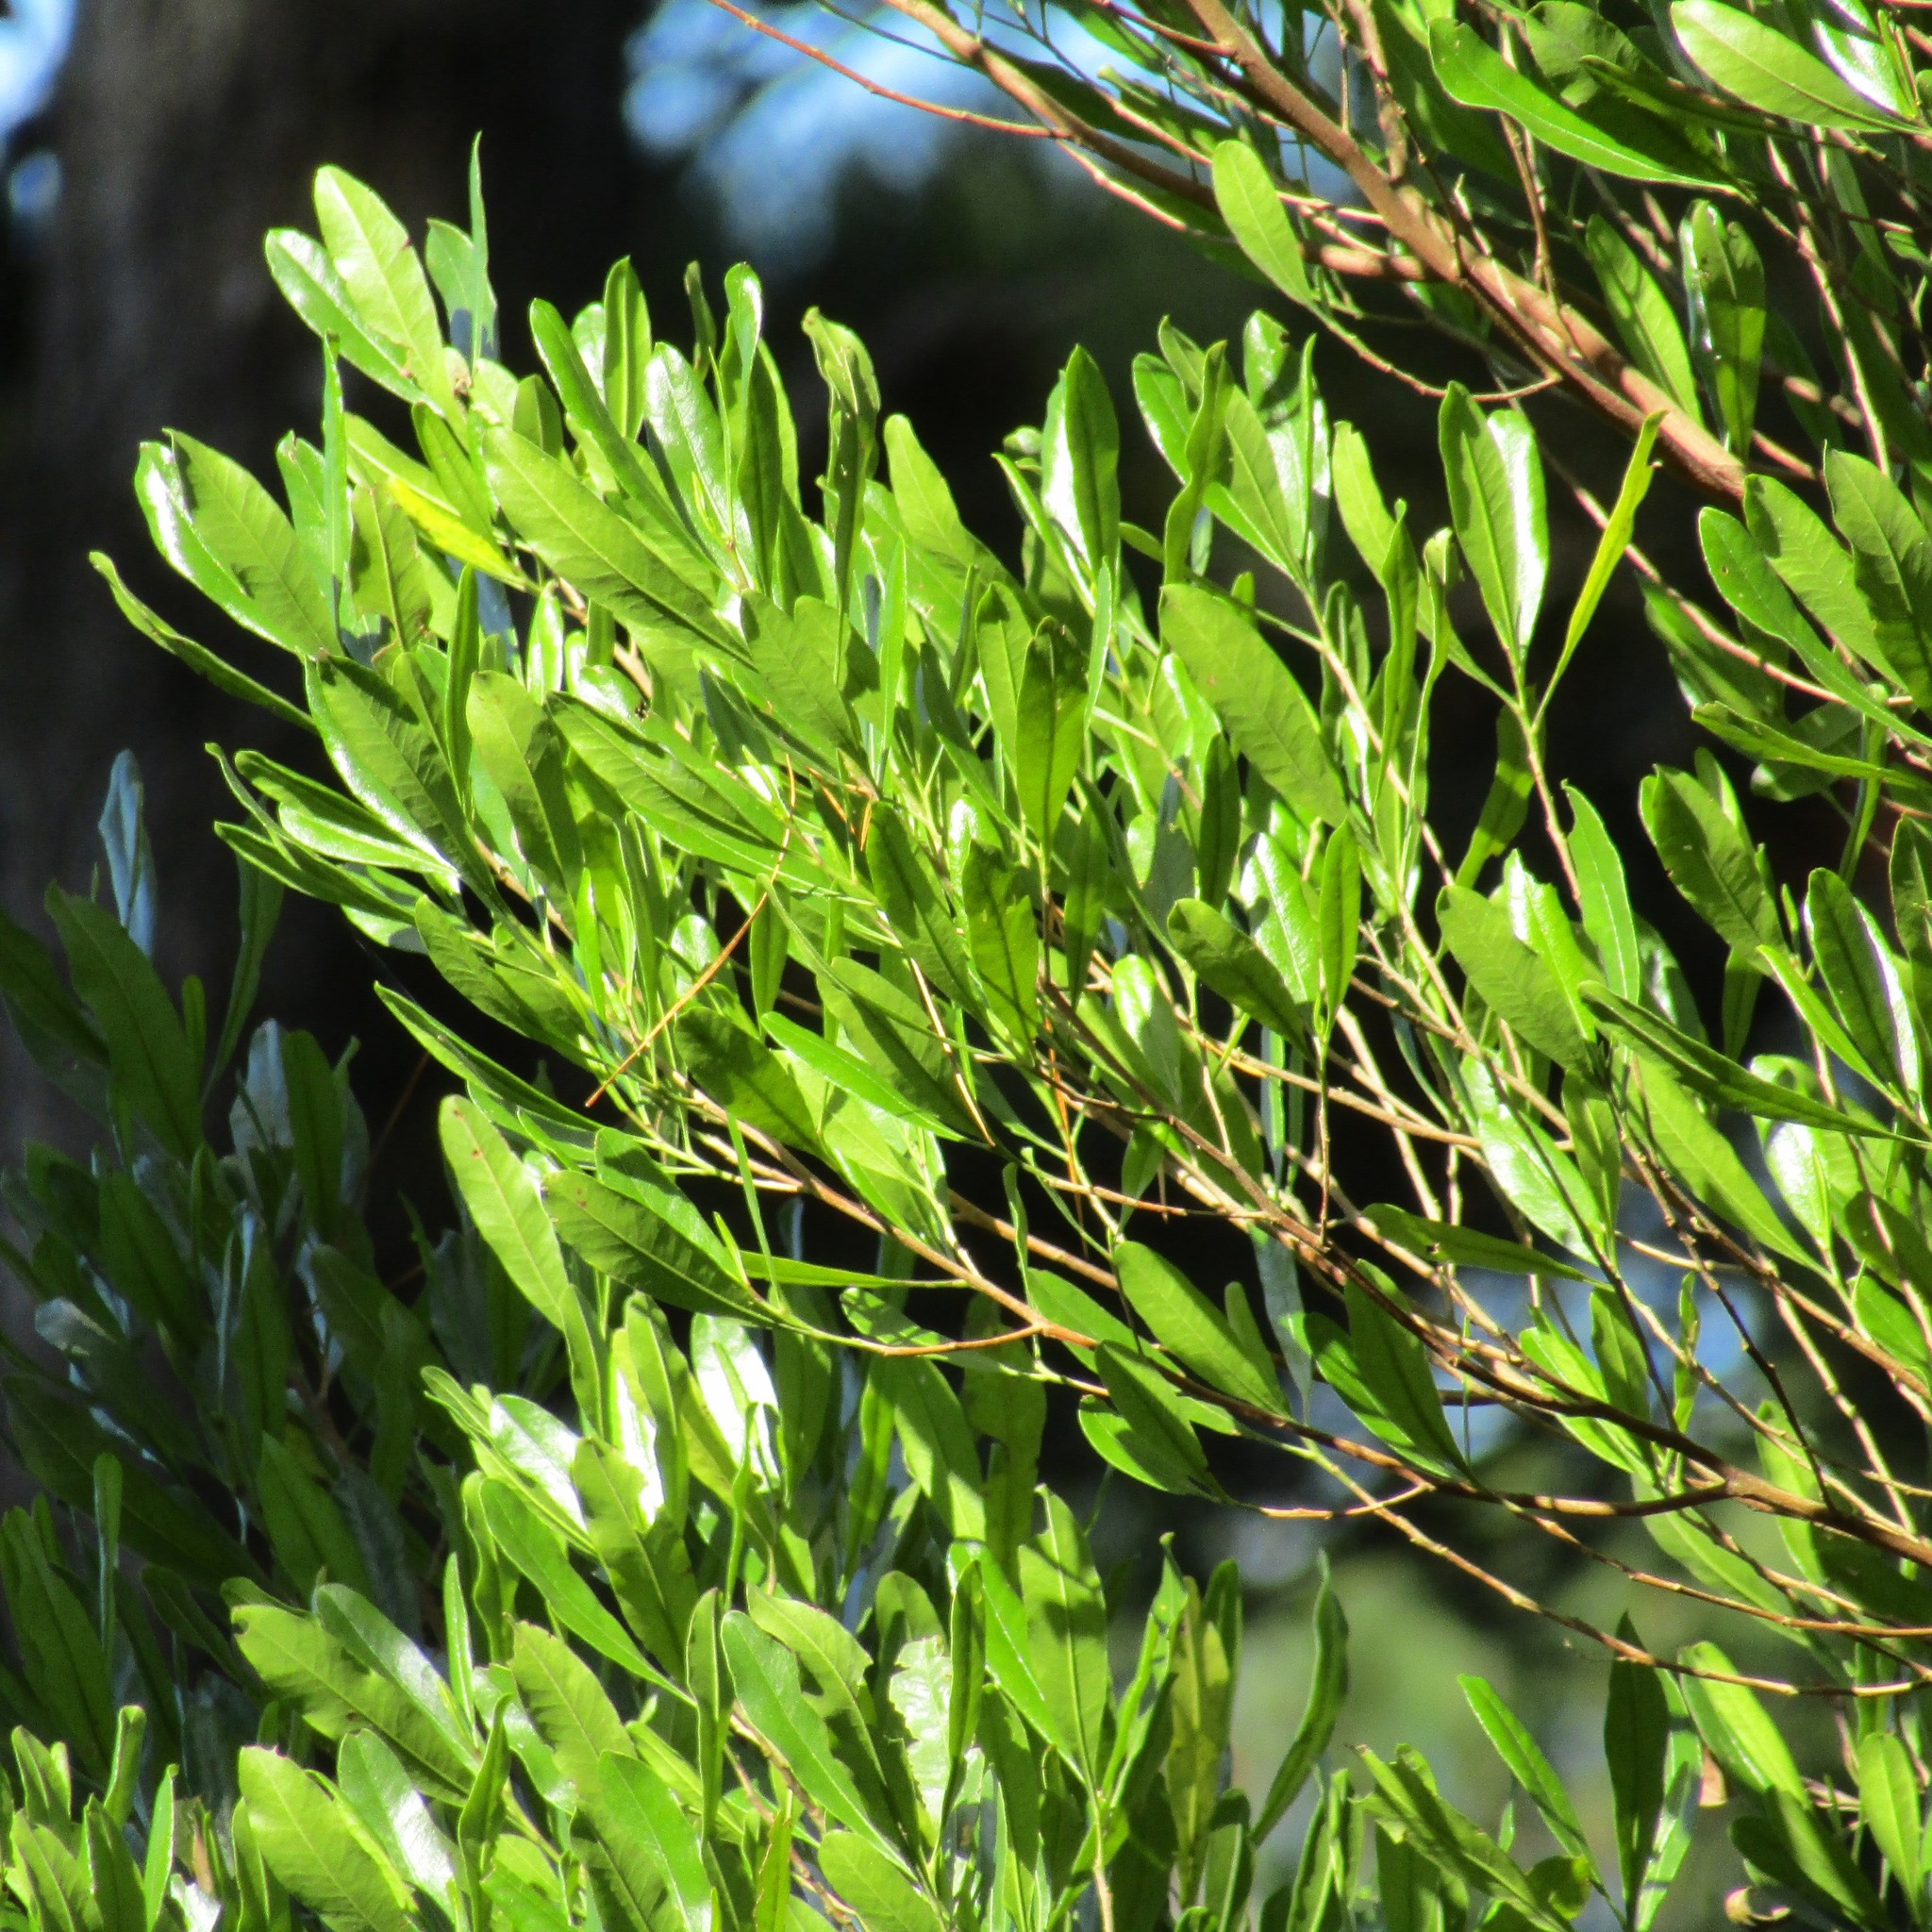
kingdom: Plantae
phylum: Tracheophyta
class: Magnoliopsida
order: Sapindales
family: Sapindaceae
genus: Dodonaea
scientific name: Dodonaea viscosa
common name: Hopbush
